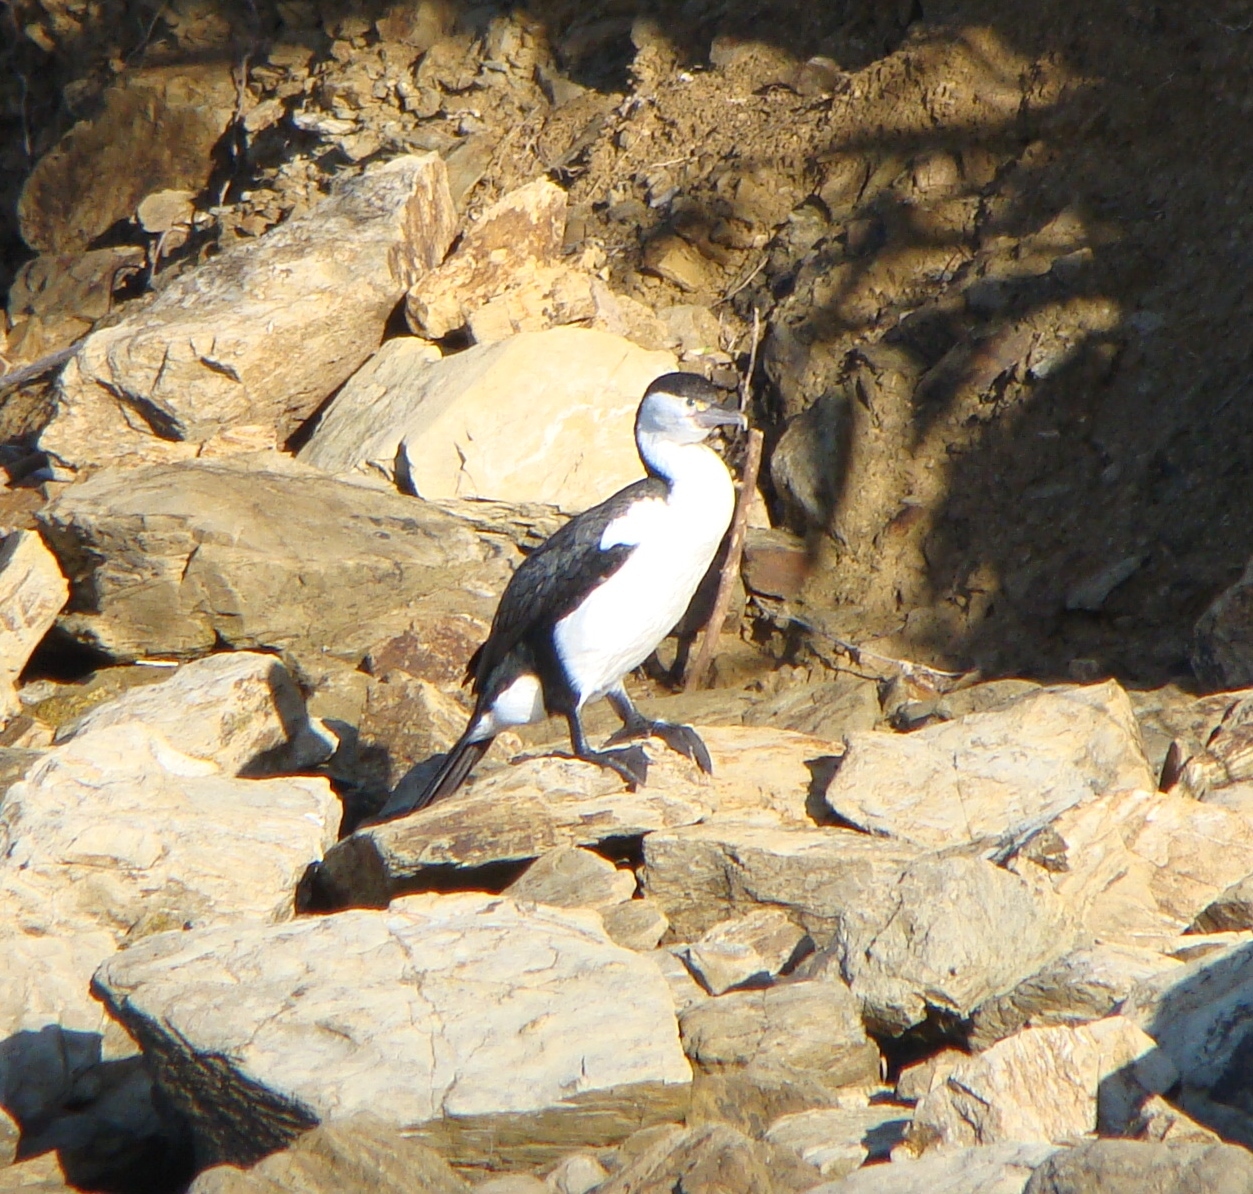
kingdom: Animalia
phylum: Chordata
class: Aves
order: Suliformes
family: Phalacrocoracidae
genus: Phalacrocorax
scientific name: Phalacrocorax varius
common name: Pied cormorant
